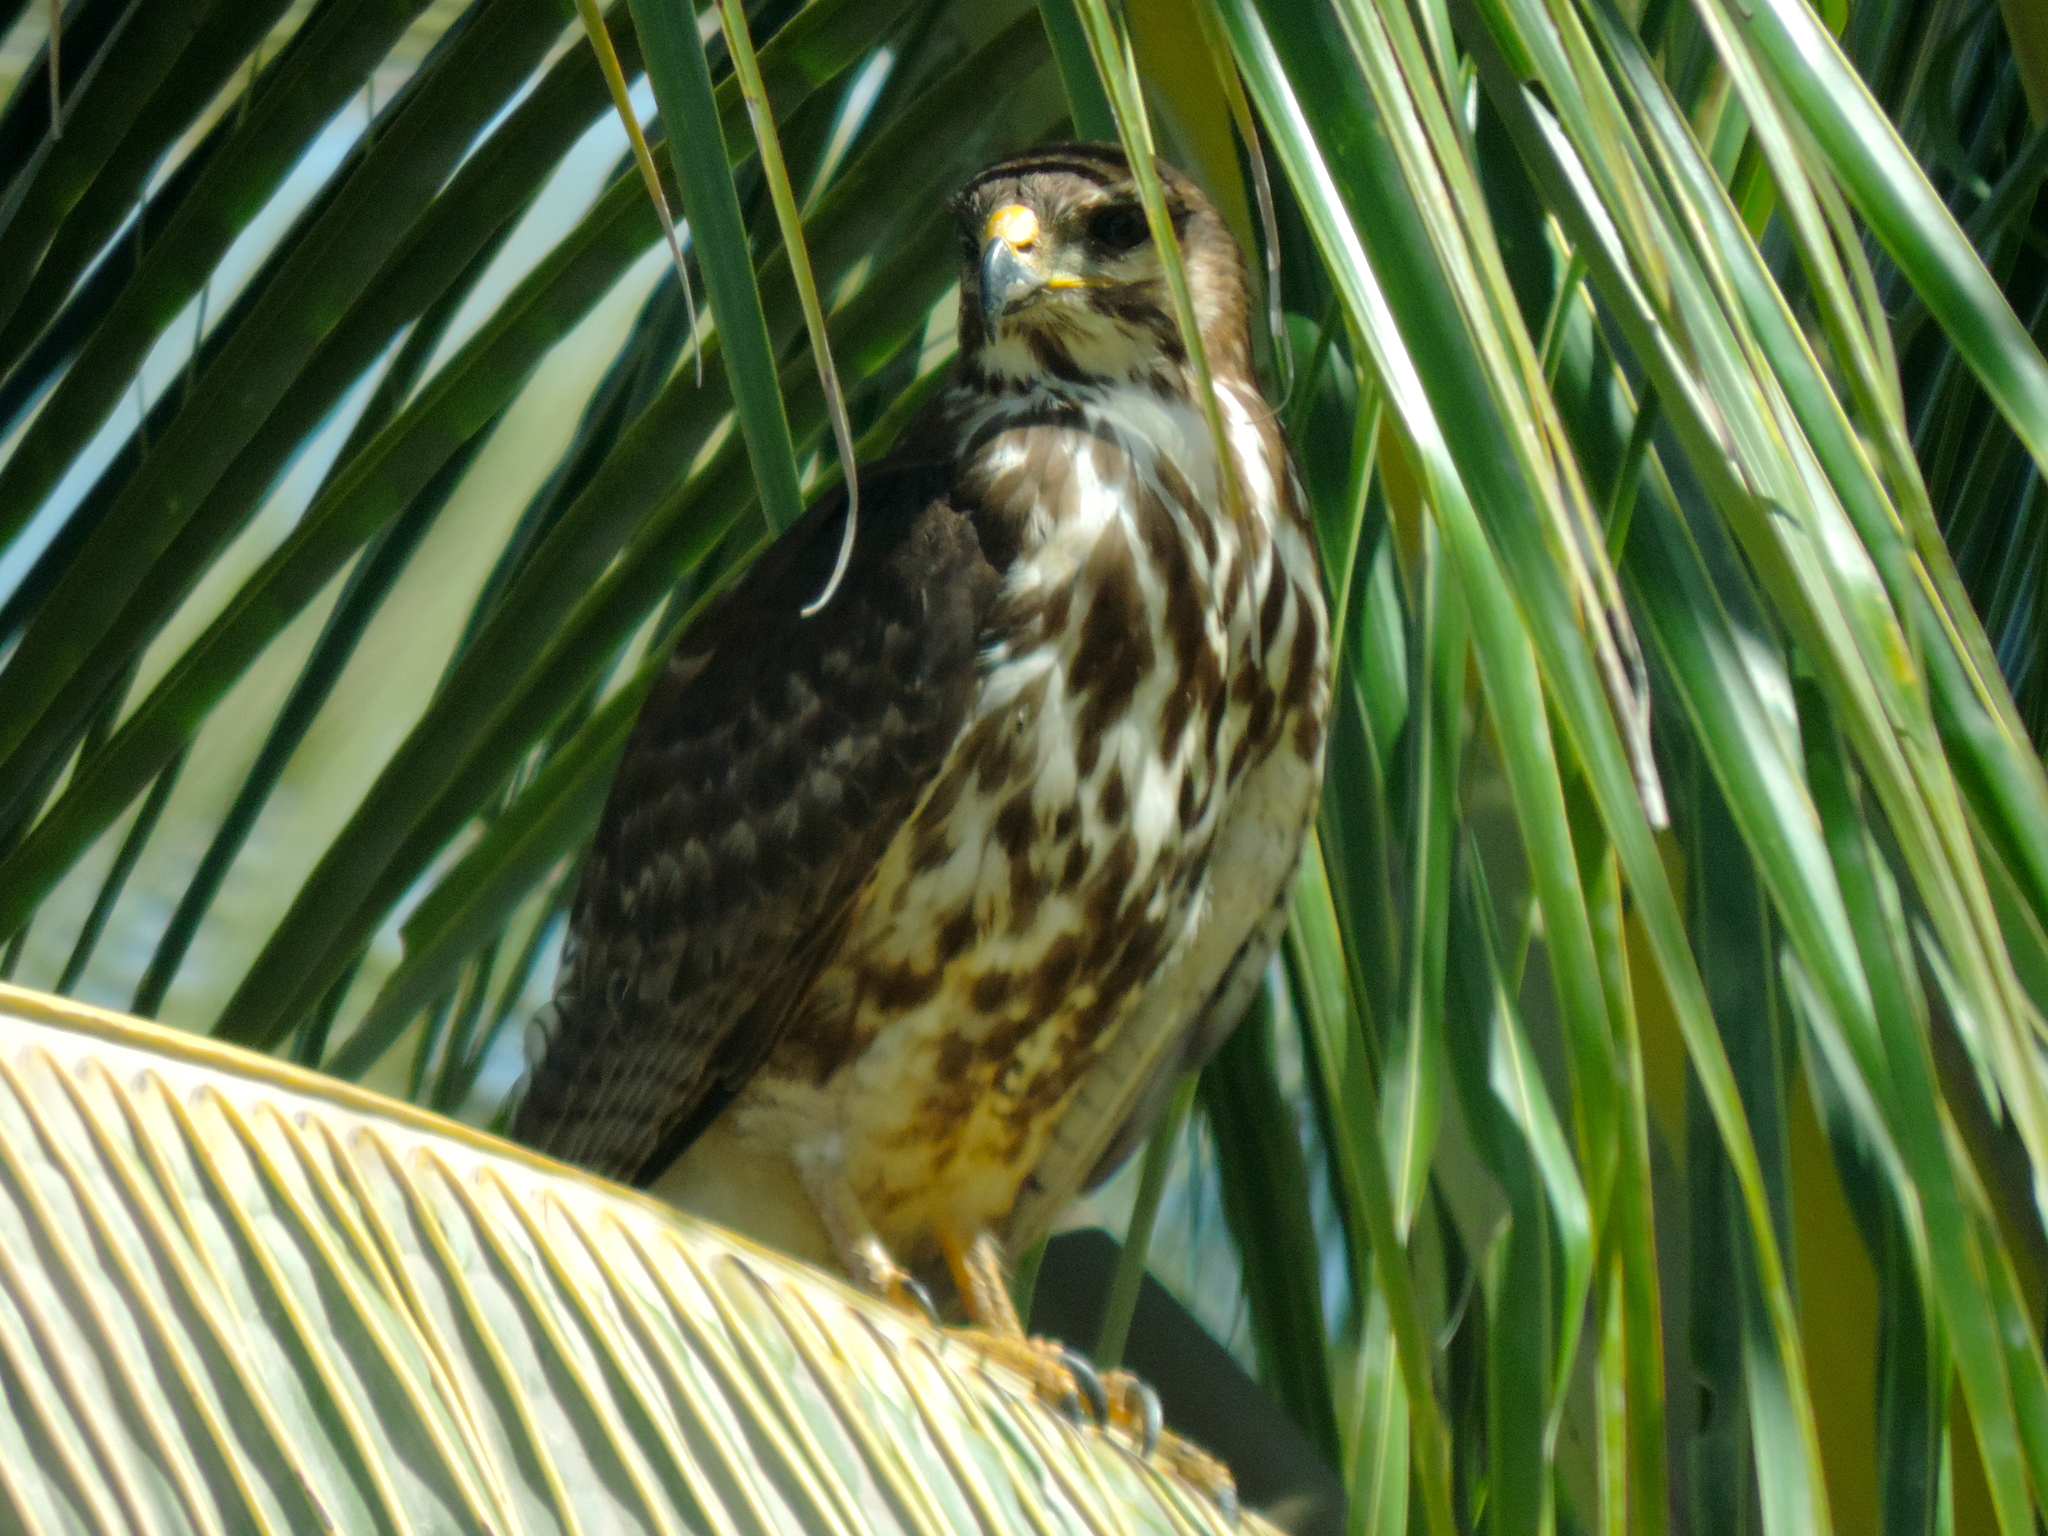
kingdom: Animalia
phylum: Chordata
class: Aves
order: Accipitriformes
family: Accipitridae
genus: Buteo
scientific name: Buteo nitidus
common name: Grey-lined hawk
